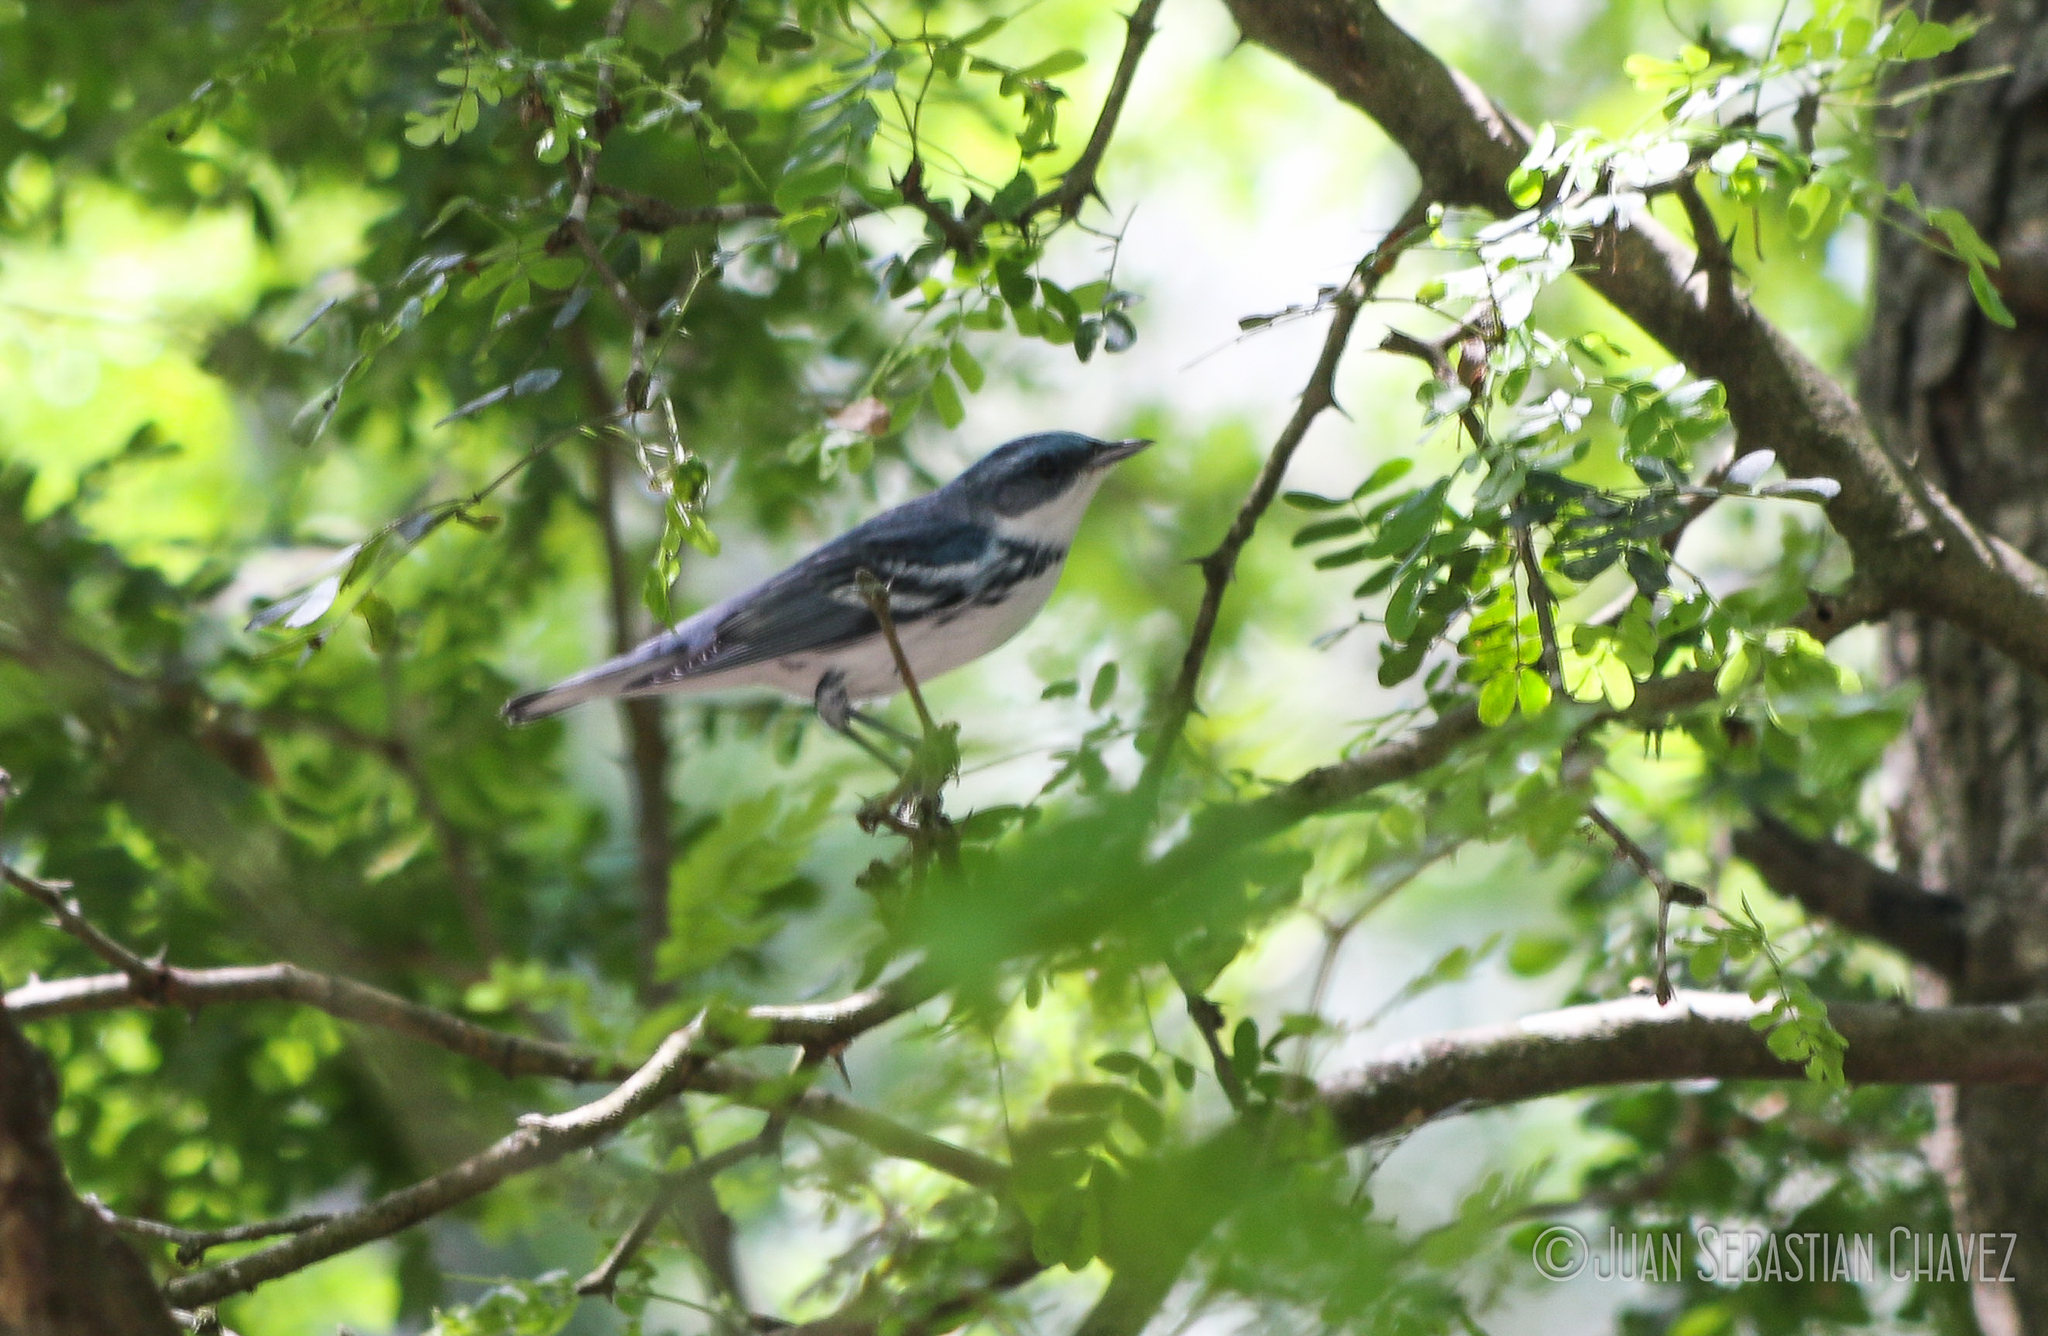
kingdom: Animalia
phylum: Chordata
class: Aves
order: Passeriformes
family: Parulidae
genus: Setophaga
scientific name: Setophaga cerulea
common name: Cerulean warbler
